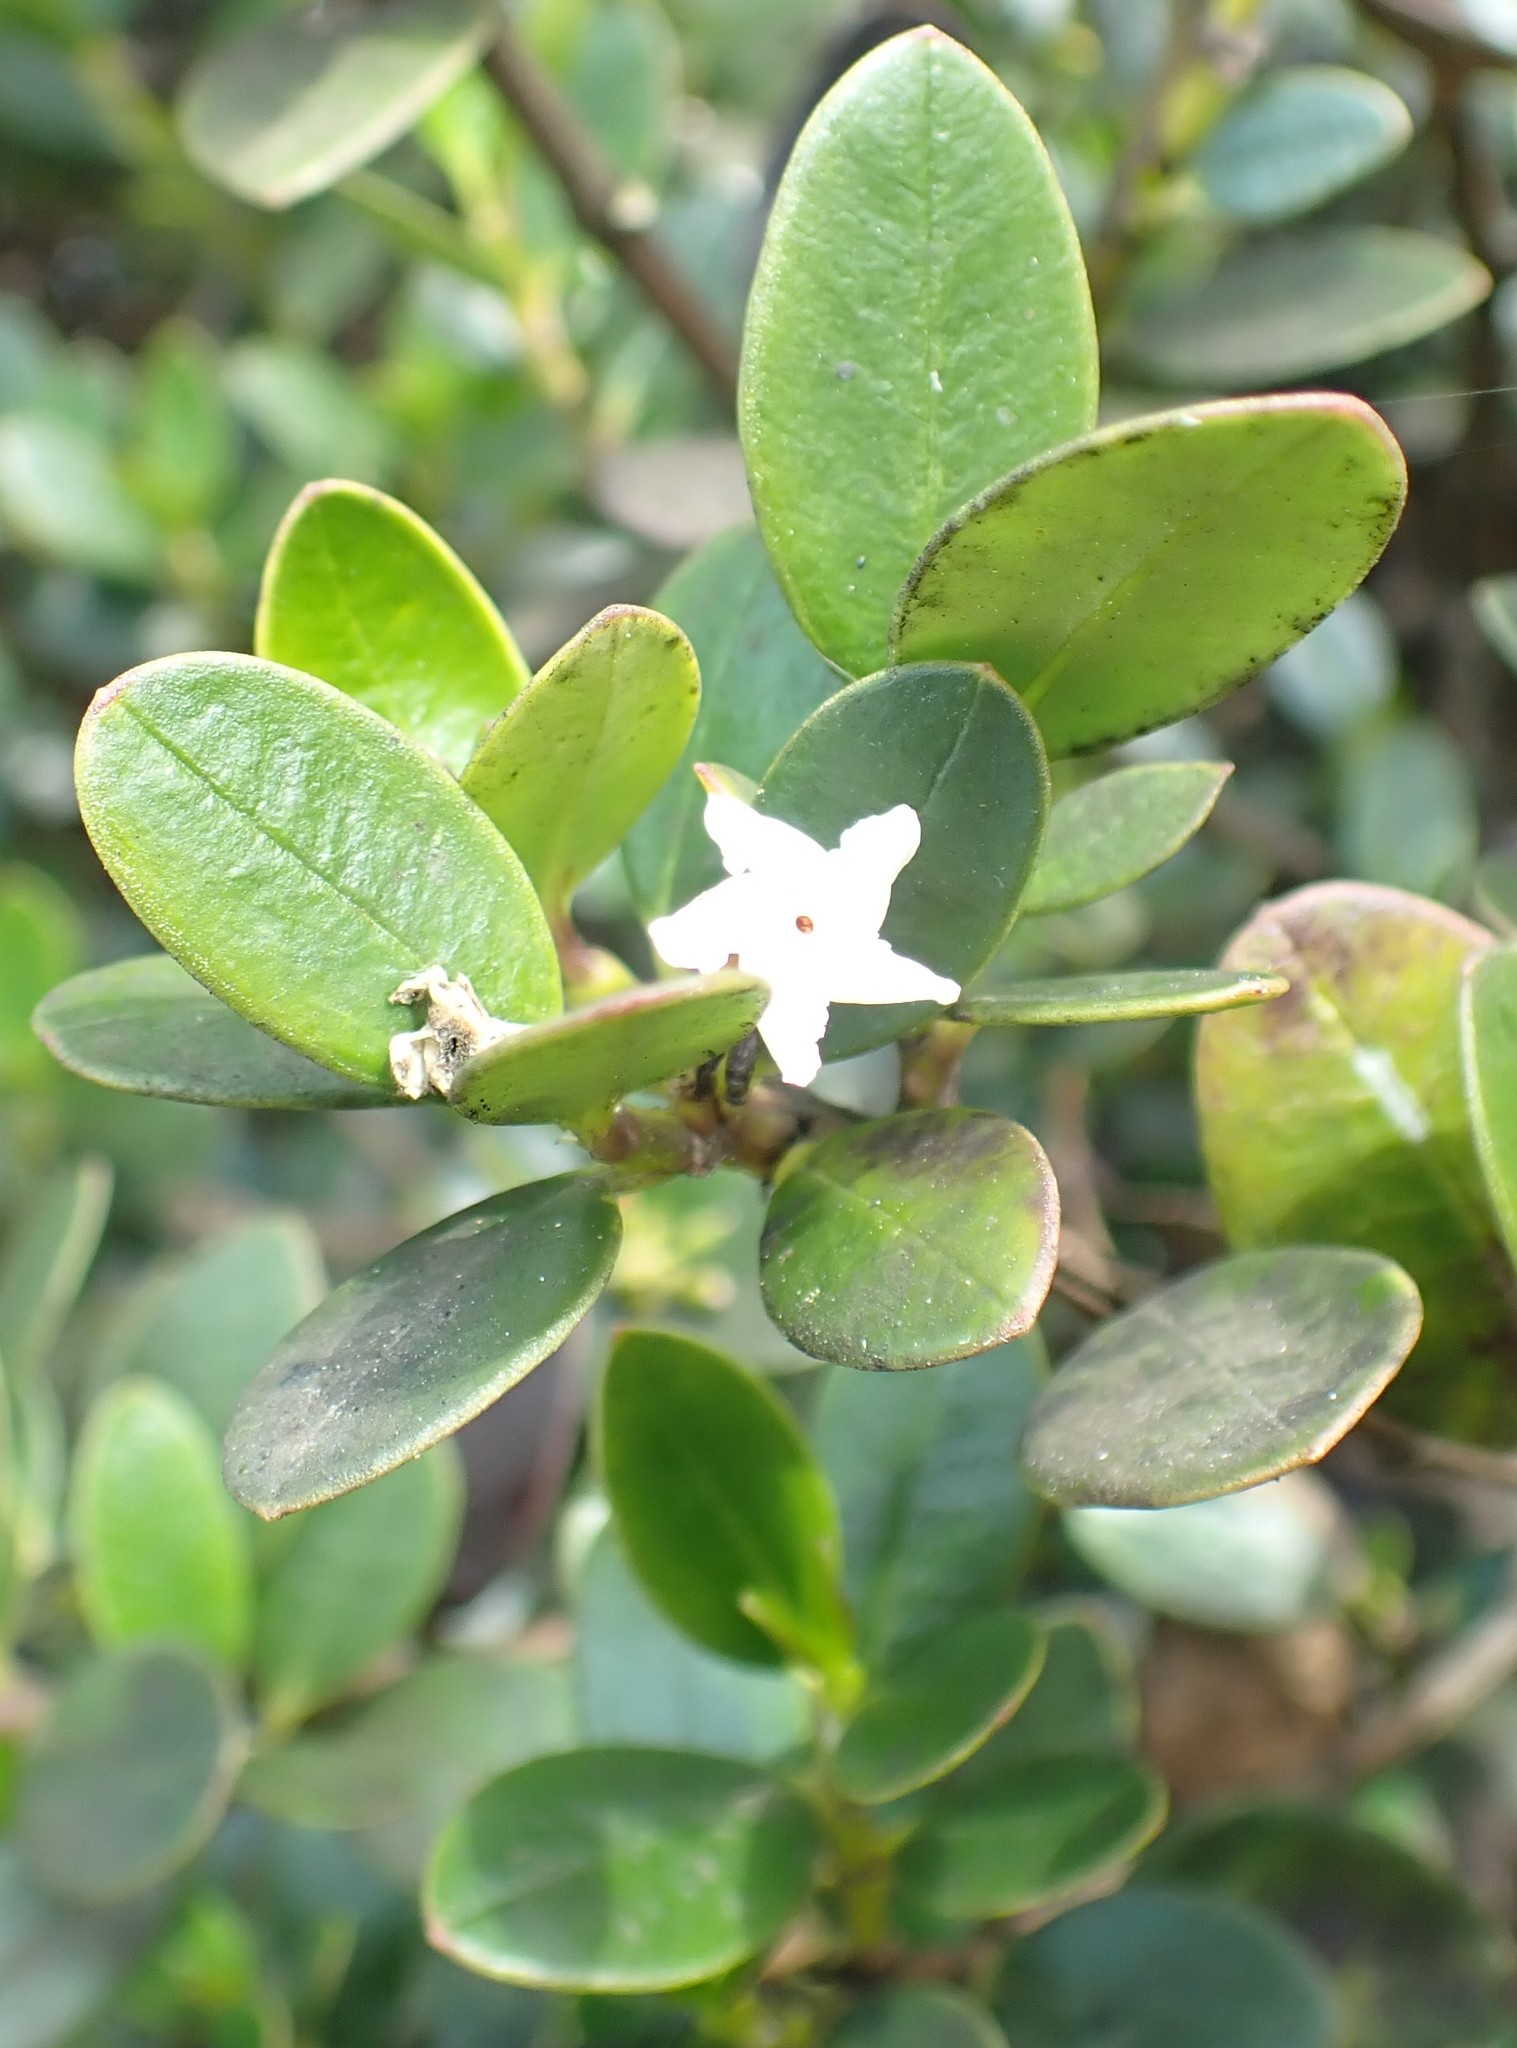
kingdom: Plantae
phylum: Tracheophyta
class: Magnoliopsida
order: Gentianales
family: Apocynaceae
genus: Alyxia
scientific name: Alyxia buxifolia
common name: Dysentery-bush
